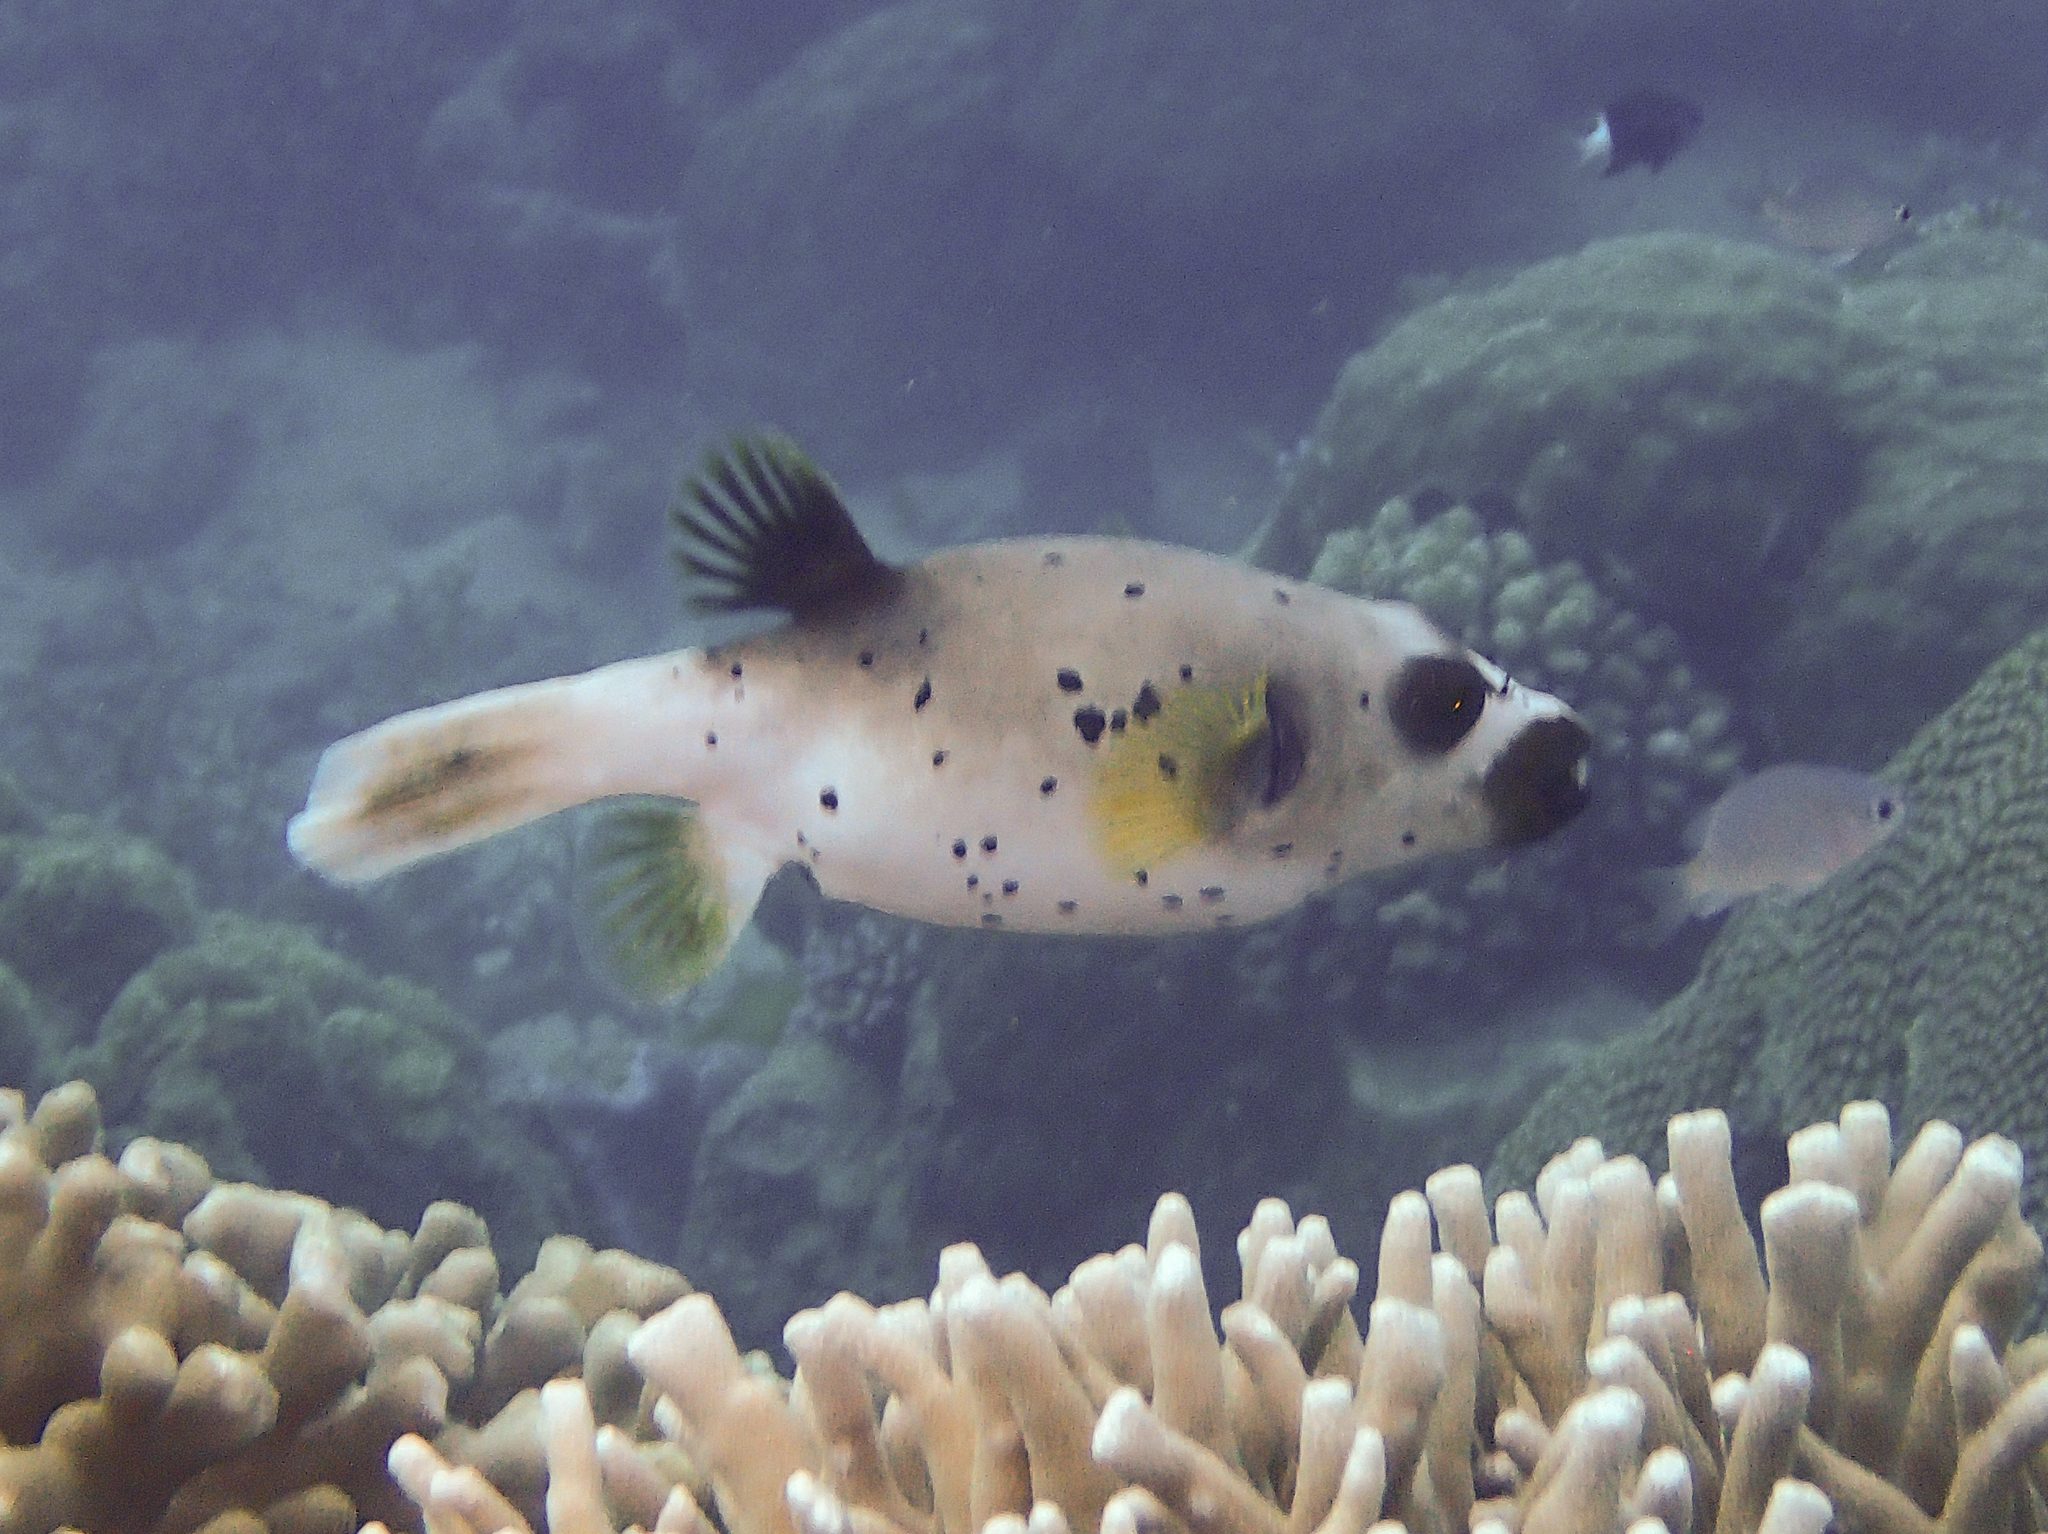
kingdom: Animalia
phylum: Chordata
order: Tetraodontiformes
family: Tetraodontidae
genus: Arothron
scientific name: Arothron nigropunctatus
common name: Black spotted blow fish
